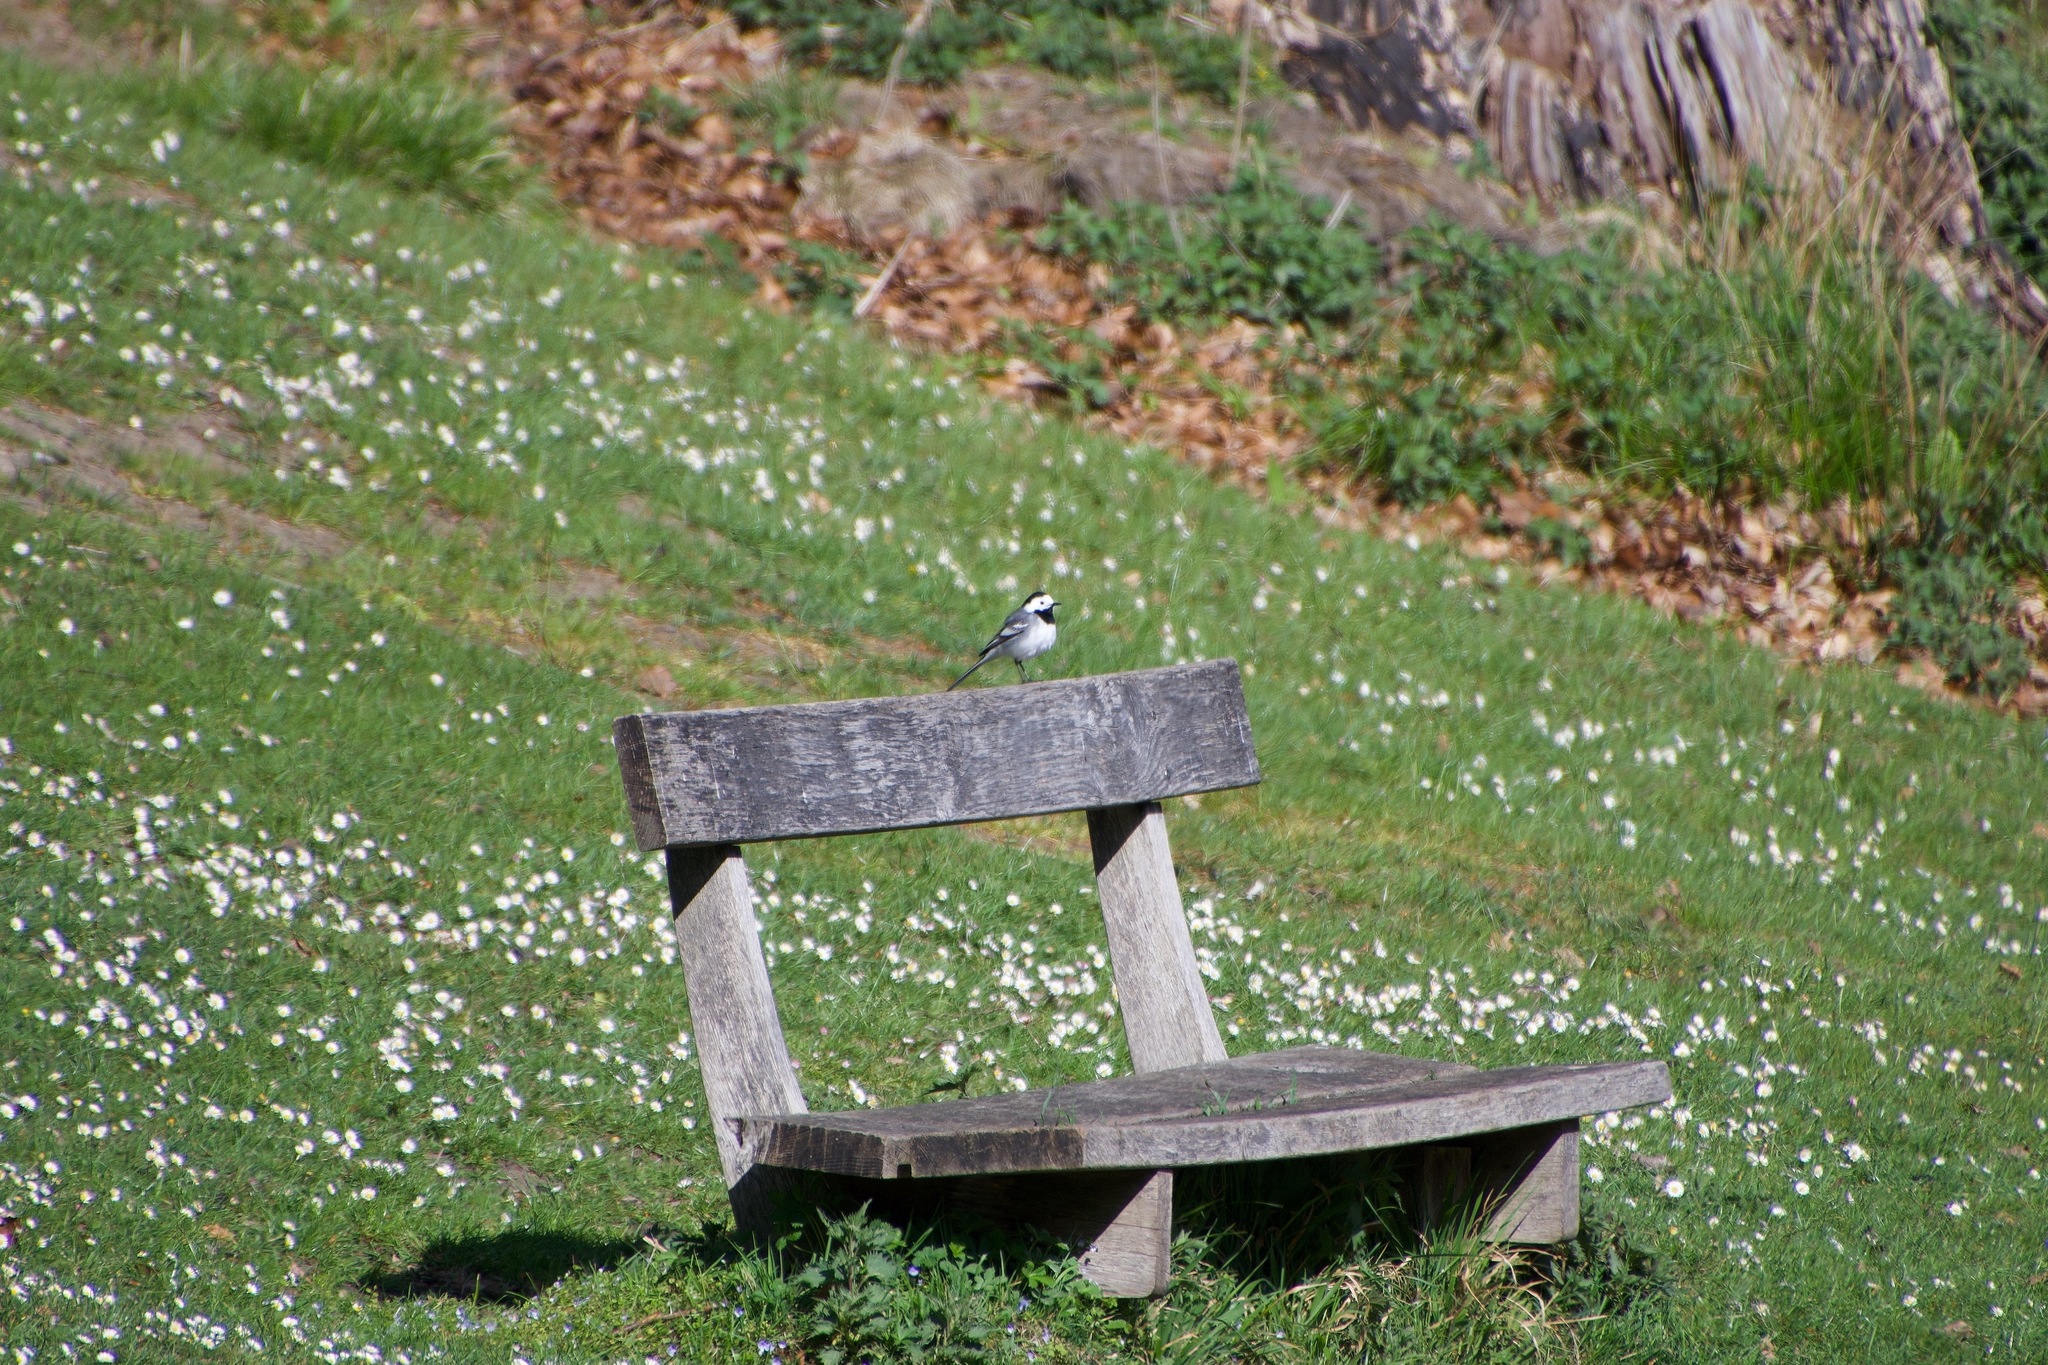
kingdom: Animalia
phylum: Chordata
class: Aves
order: Passeriformes
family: Motacillidae
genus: Motacilla
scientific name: Motacilla alba
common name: White wagtail
